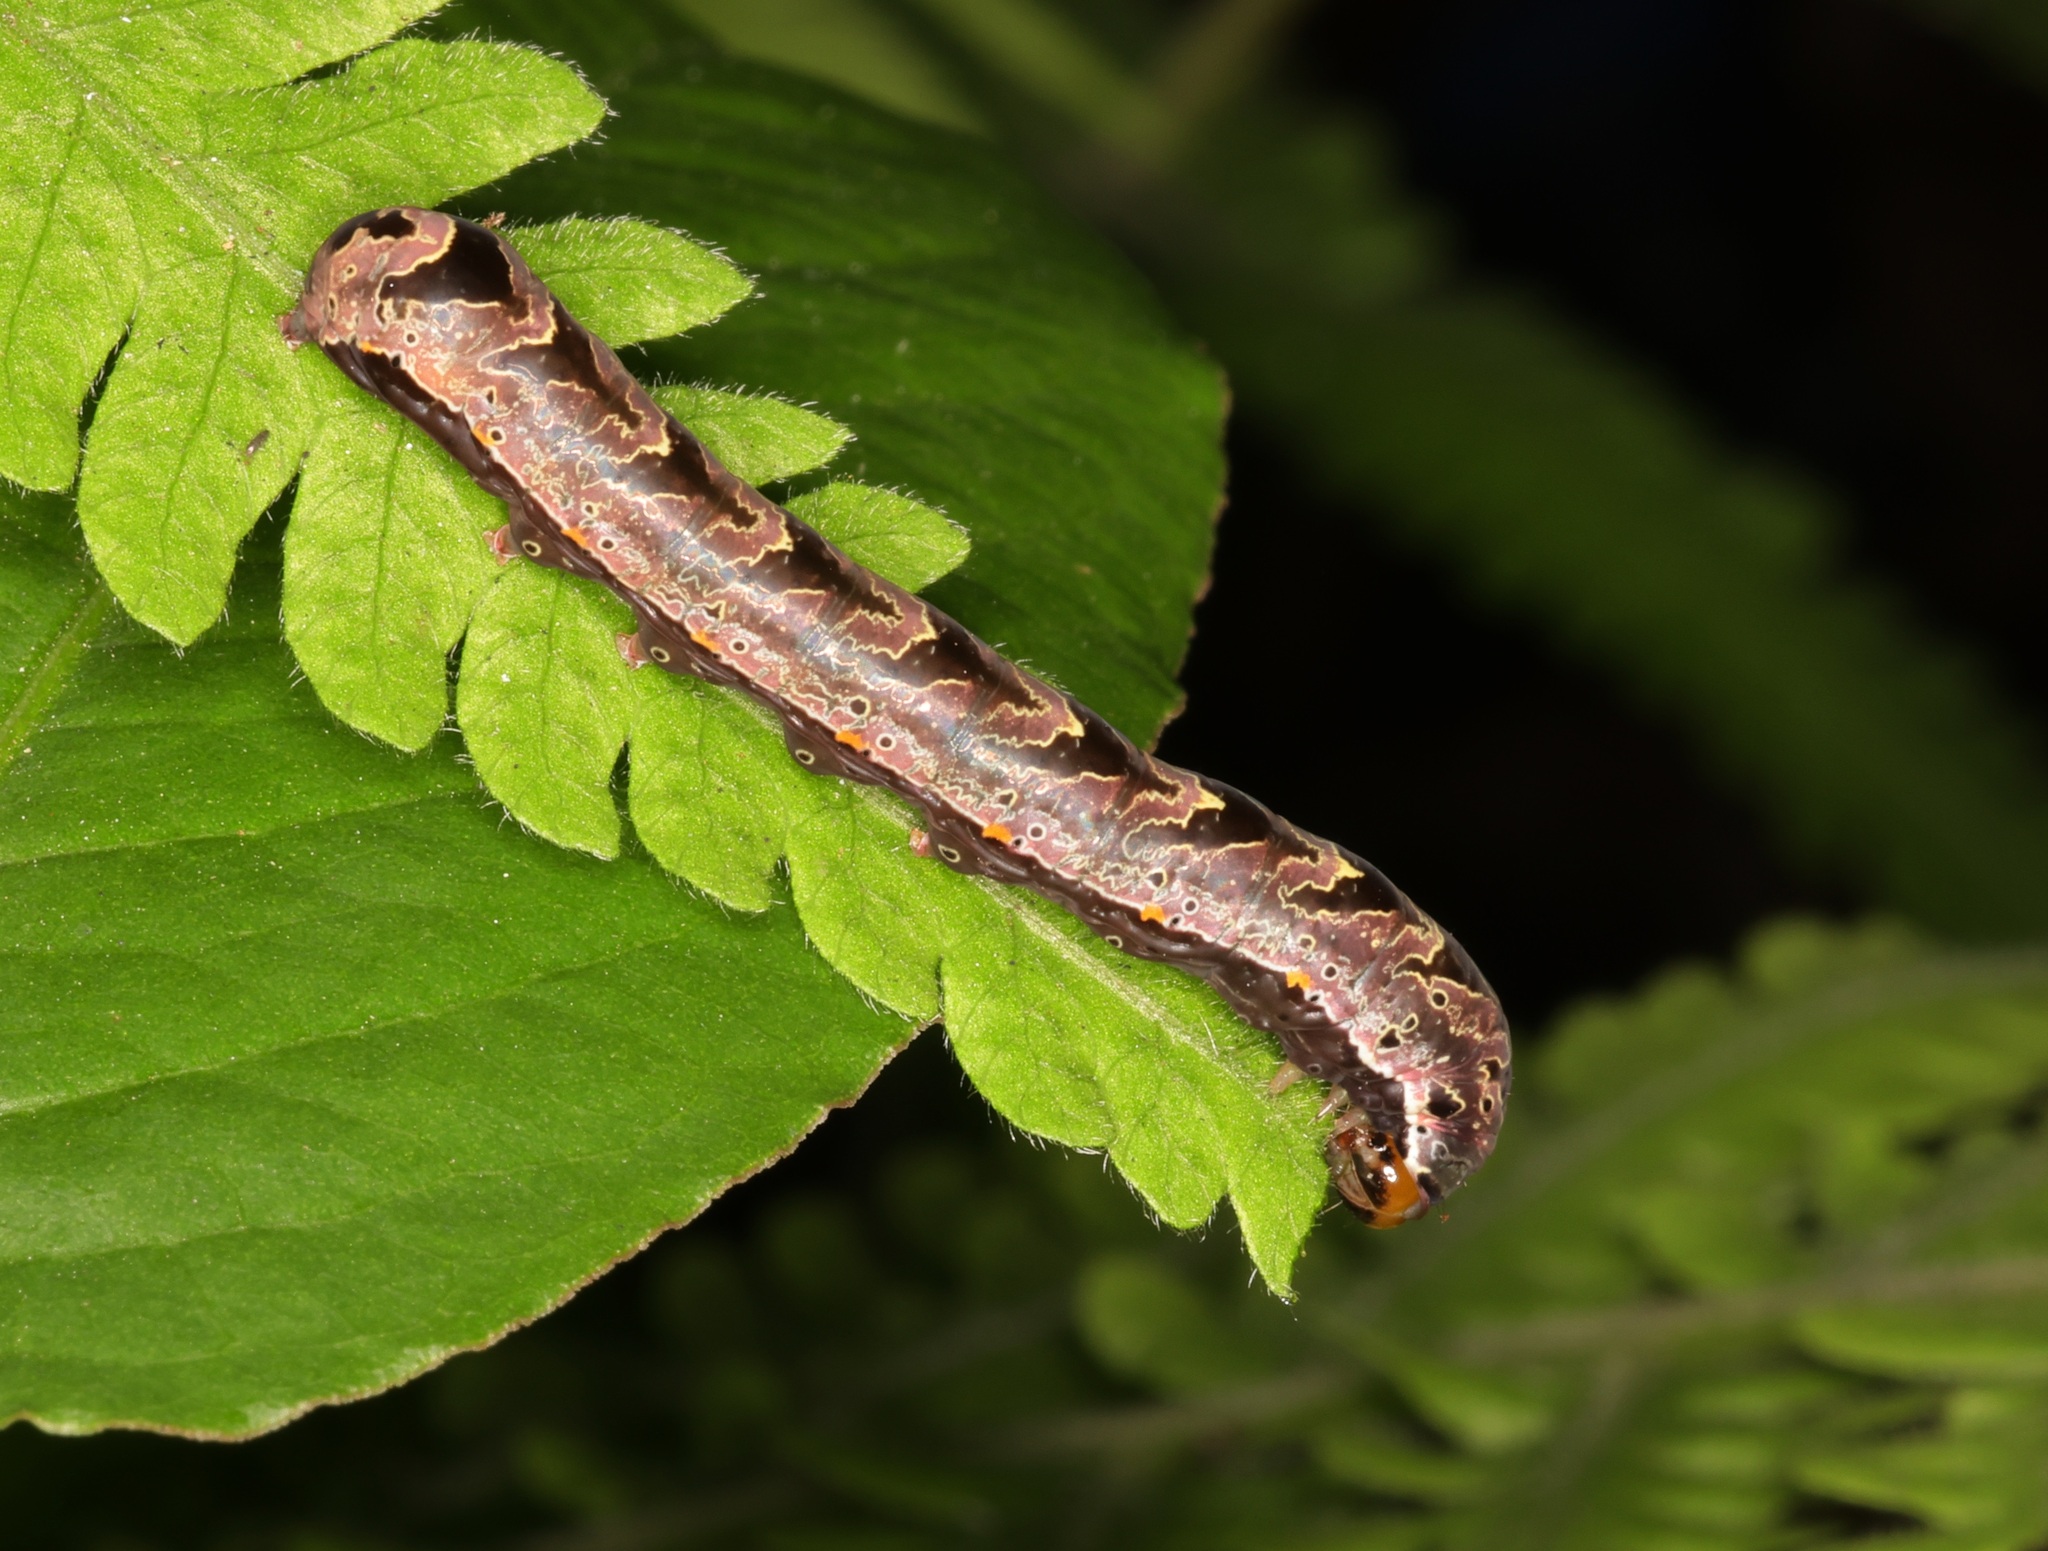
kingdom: Animalia
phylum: Arthropoda
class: Insecta
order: Lepidoptera
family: Noctuidae
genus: Callopistria
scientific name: Callopistria maillardi
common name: Cutworm
